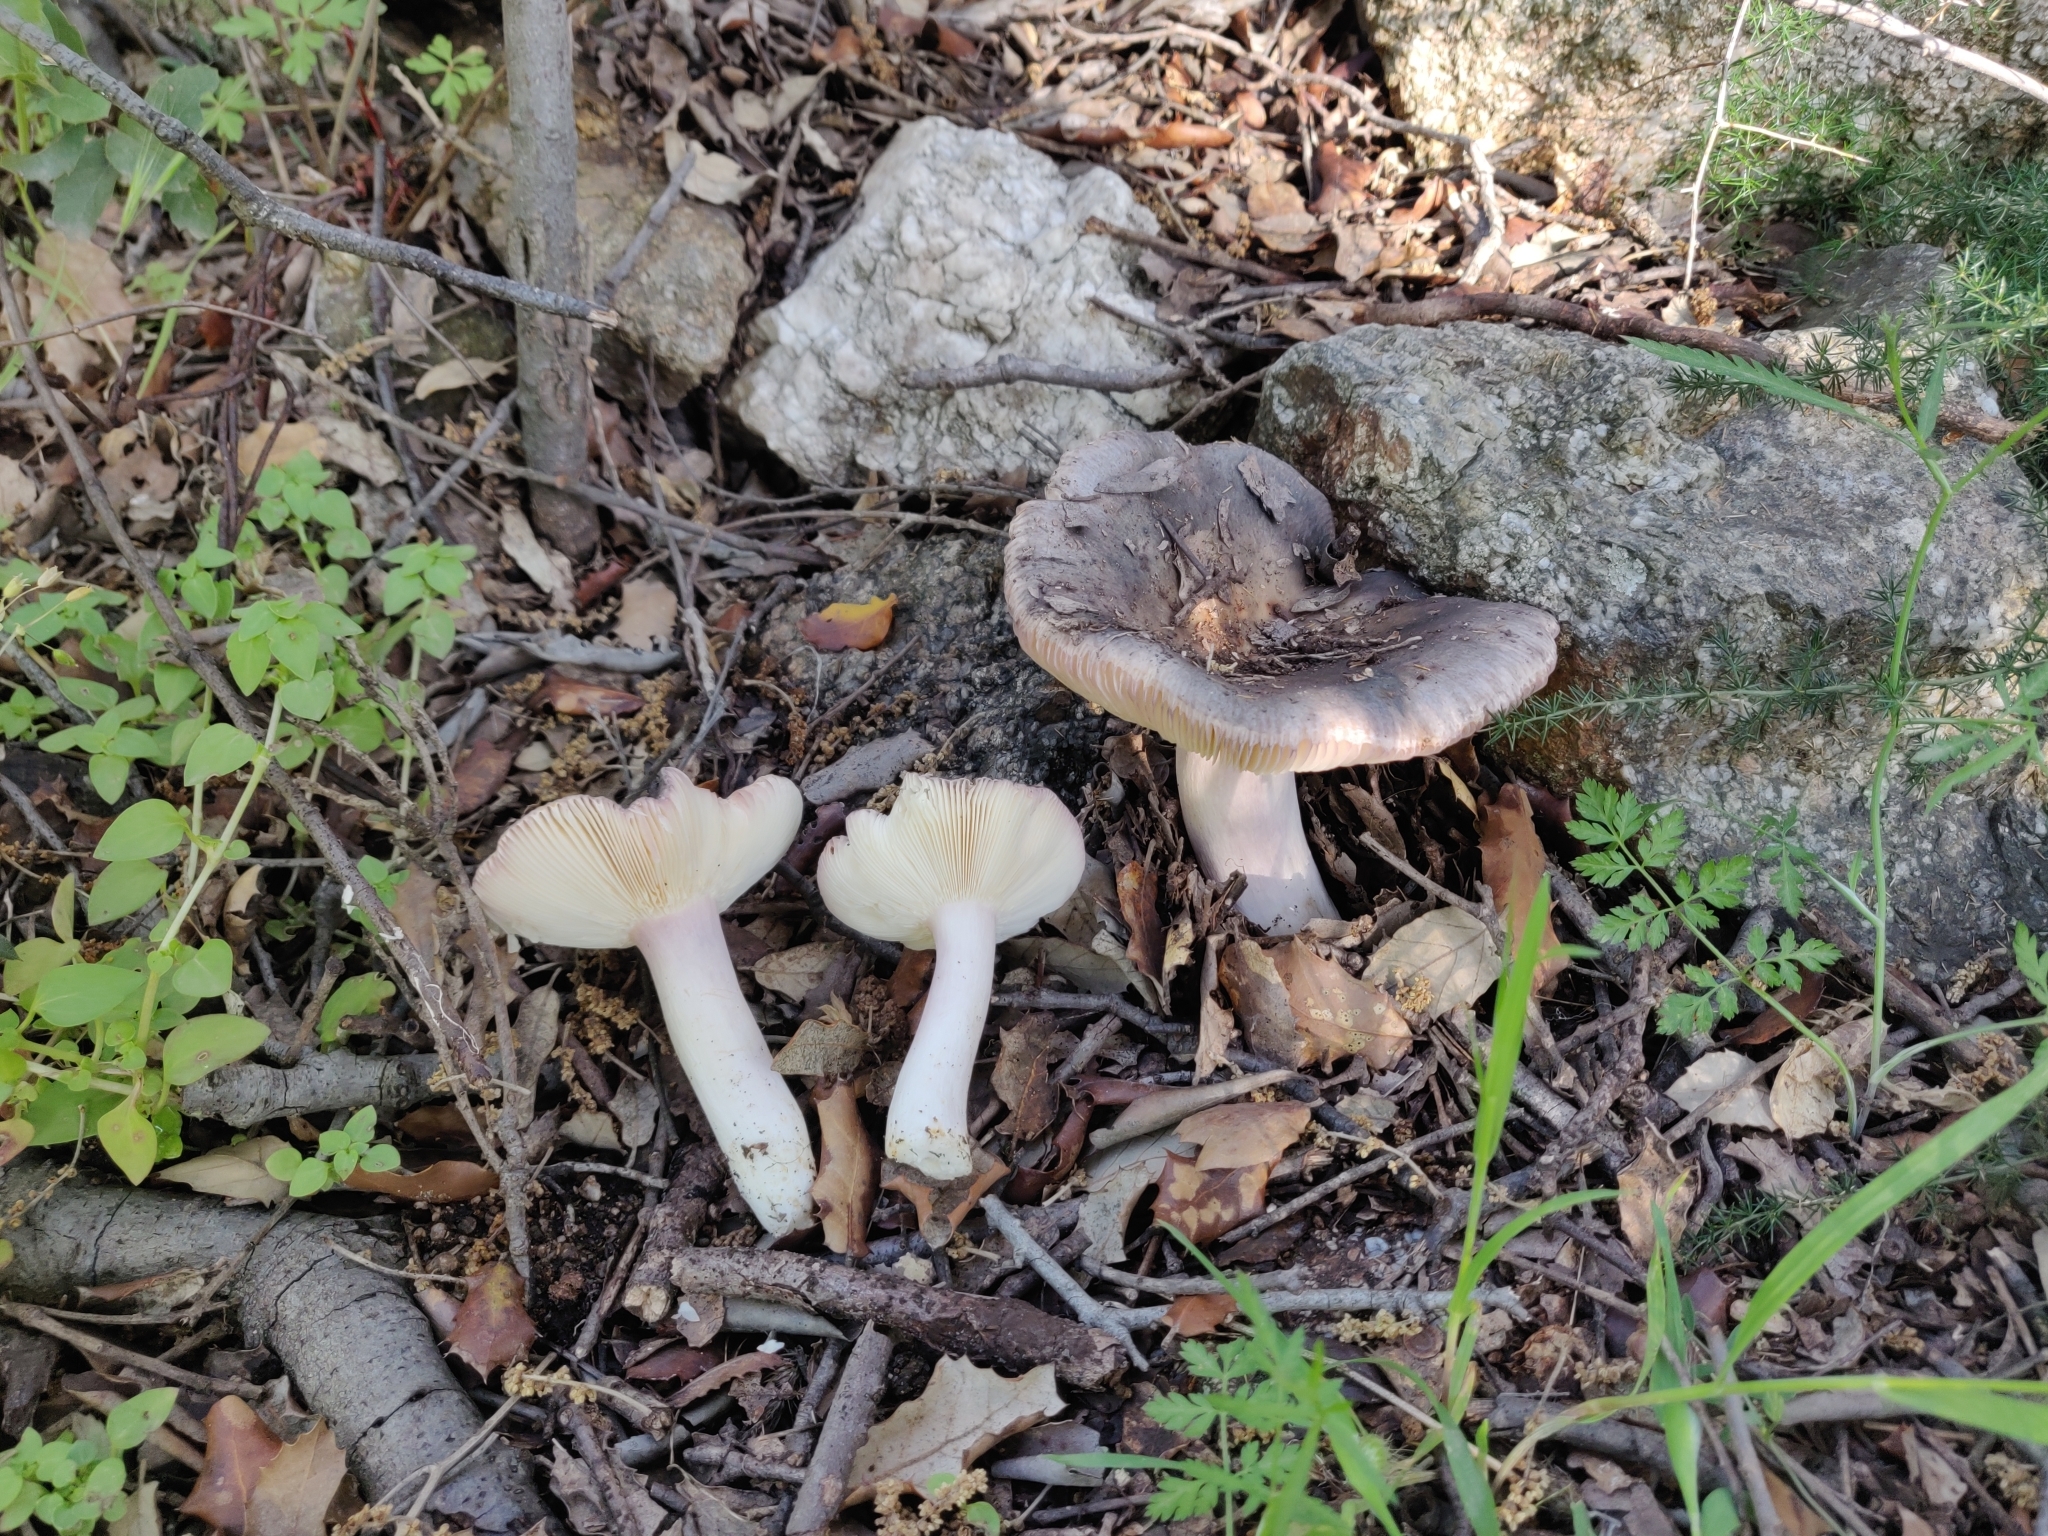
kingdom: Fungi
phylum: Basidiomycota
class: Agaricomycetes
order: Russulales
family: Russulaceae
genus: Russula
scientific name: Russula grisea
